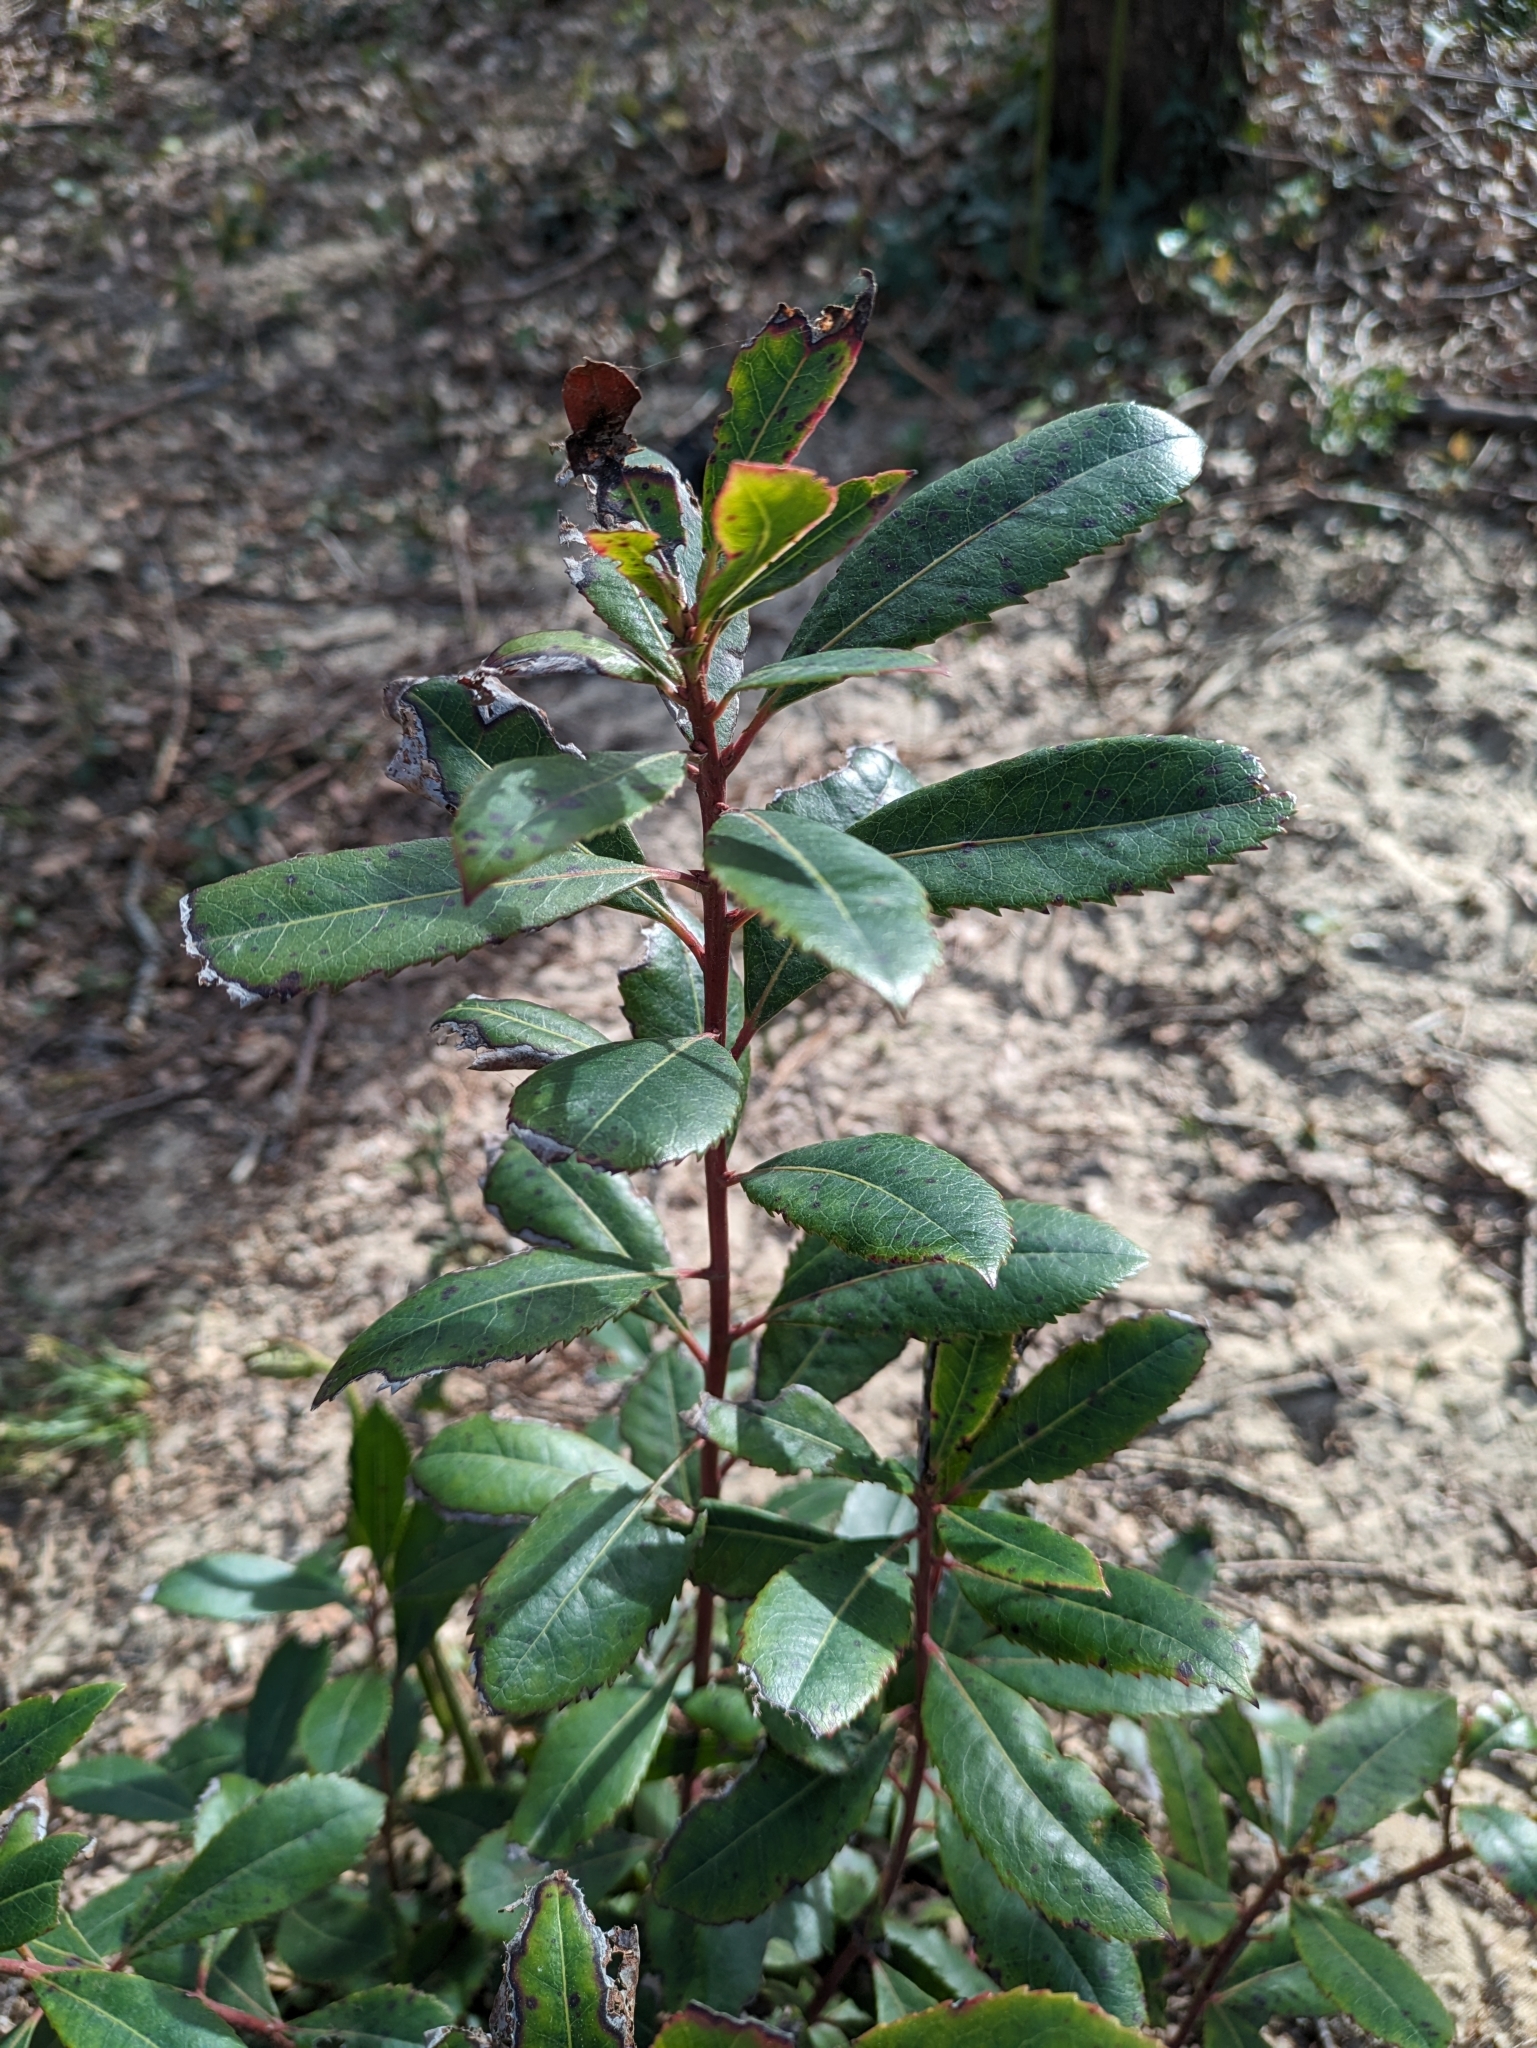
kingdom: Plantae
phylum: Tracheophyta
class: Magnoliopsida
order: Ericales
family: Ericaceae
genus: Arbutus
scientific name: Arbutus unedo
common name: Strawberry-tree
